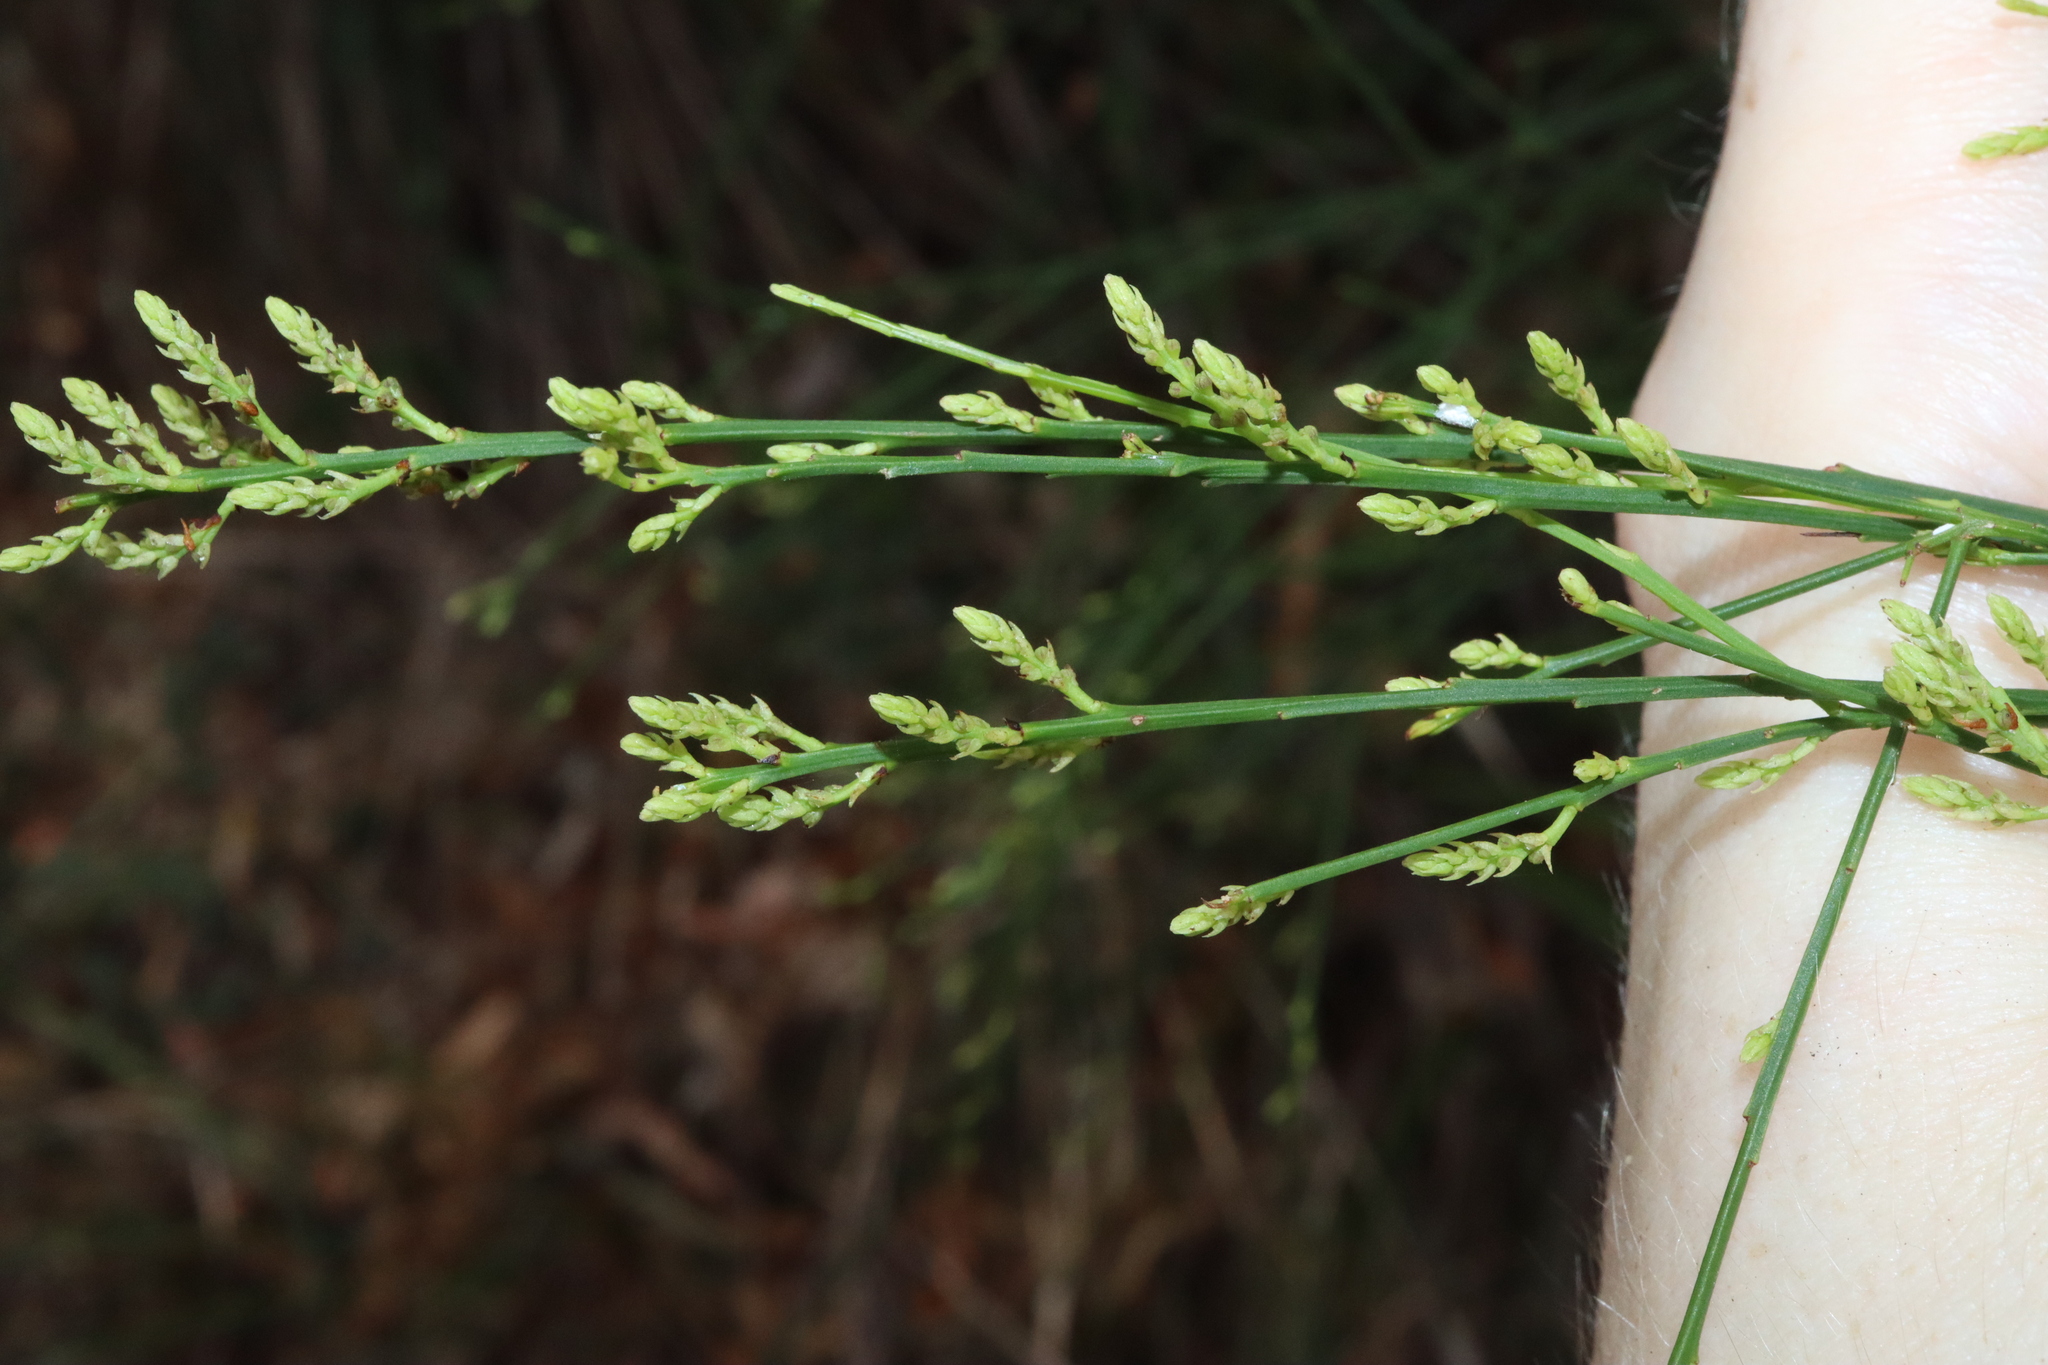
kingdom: Plantae
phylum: Tracheophyta
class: Magnoliopsida
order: Santalales
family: Amphorogynaceae
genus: Leptomeria
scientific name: Leptomeria acida
